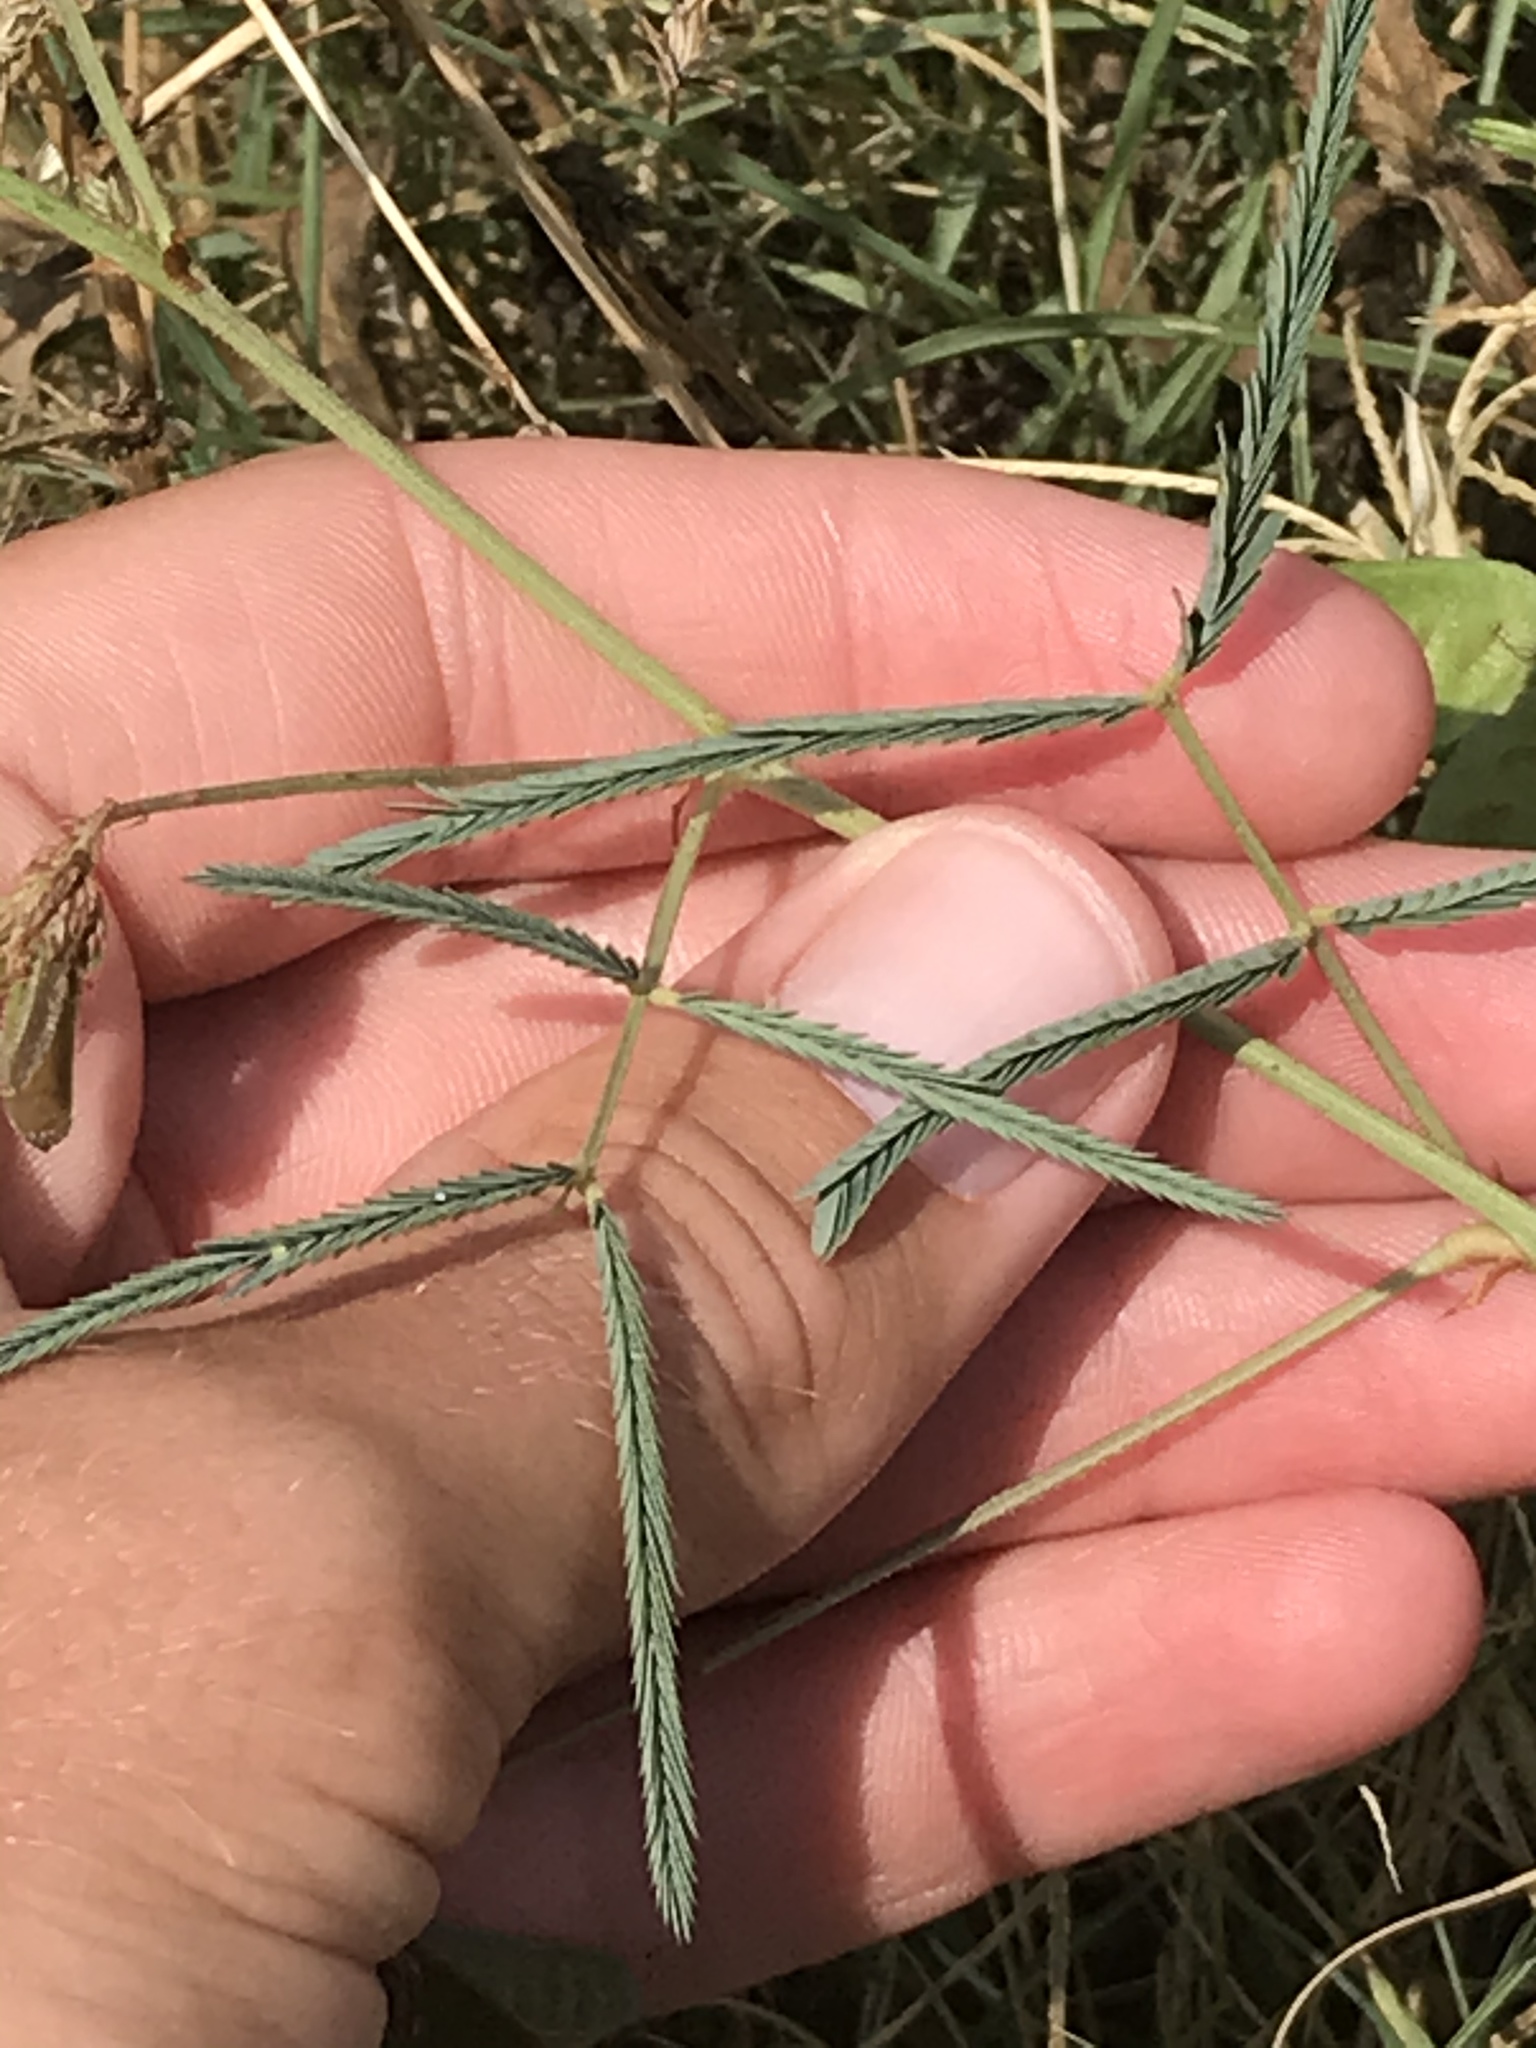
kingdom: Plantae
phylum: Tracheophyta
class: Magnoliopsida
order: Fabales
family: Fabaceae
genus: Neptunia
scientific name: Neptunia pubescens
